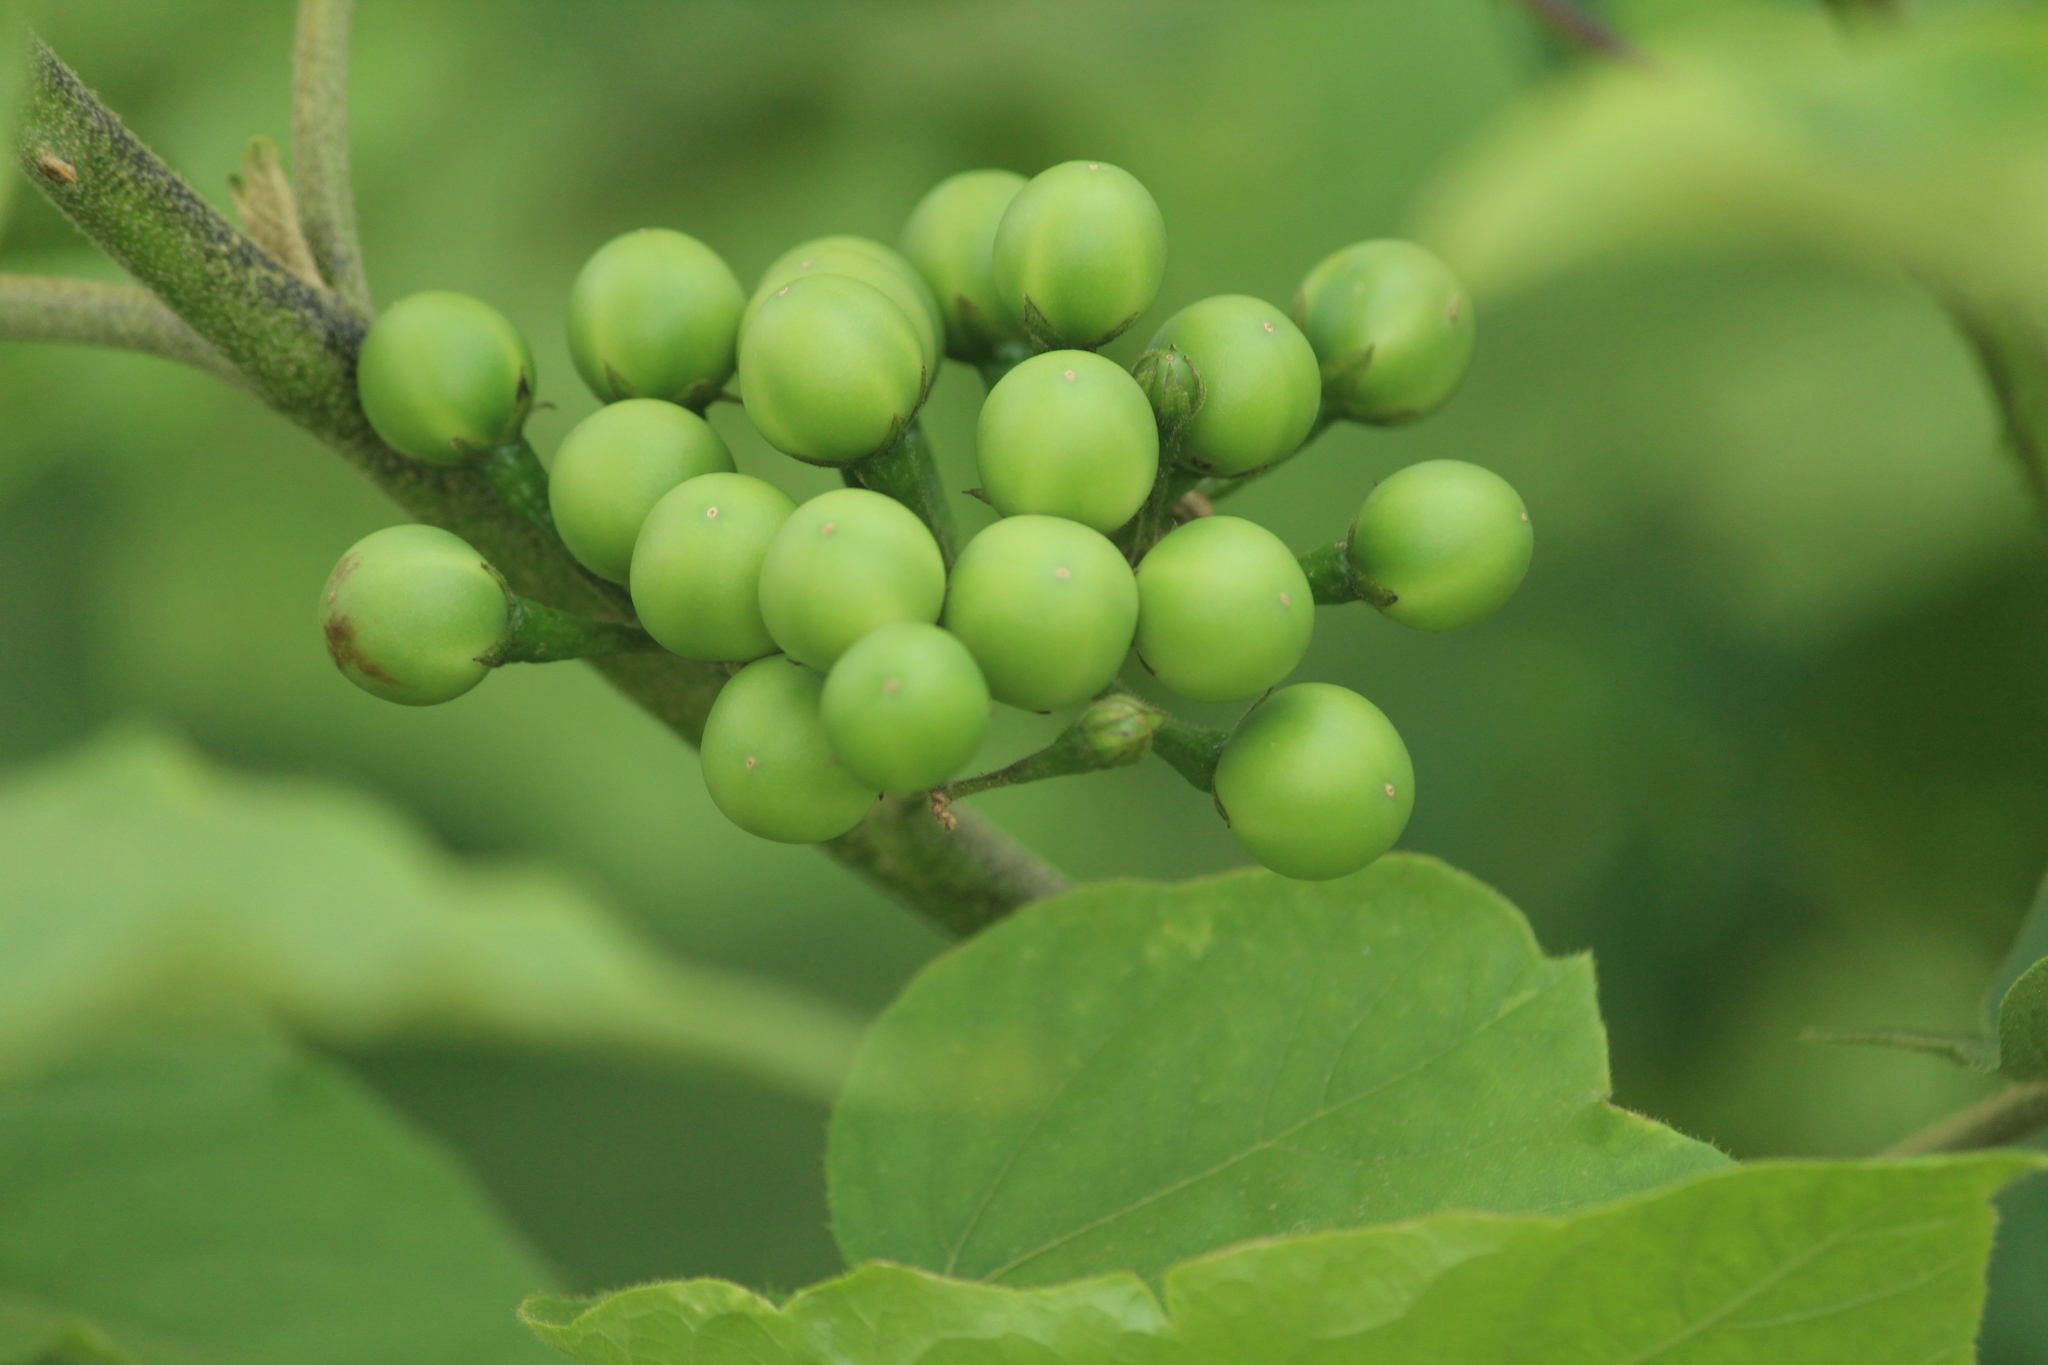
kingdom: Plantae
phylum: Tracheophyta
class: Magnoliopsida
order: Solanales
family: Solanaceae
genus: Solanum
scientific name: Solanum torvum
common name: Turkey berry
